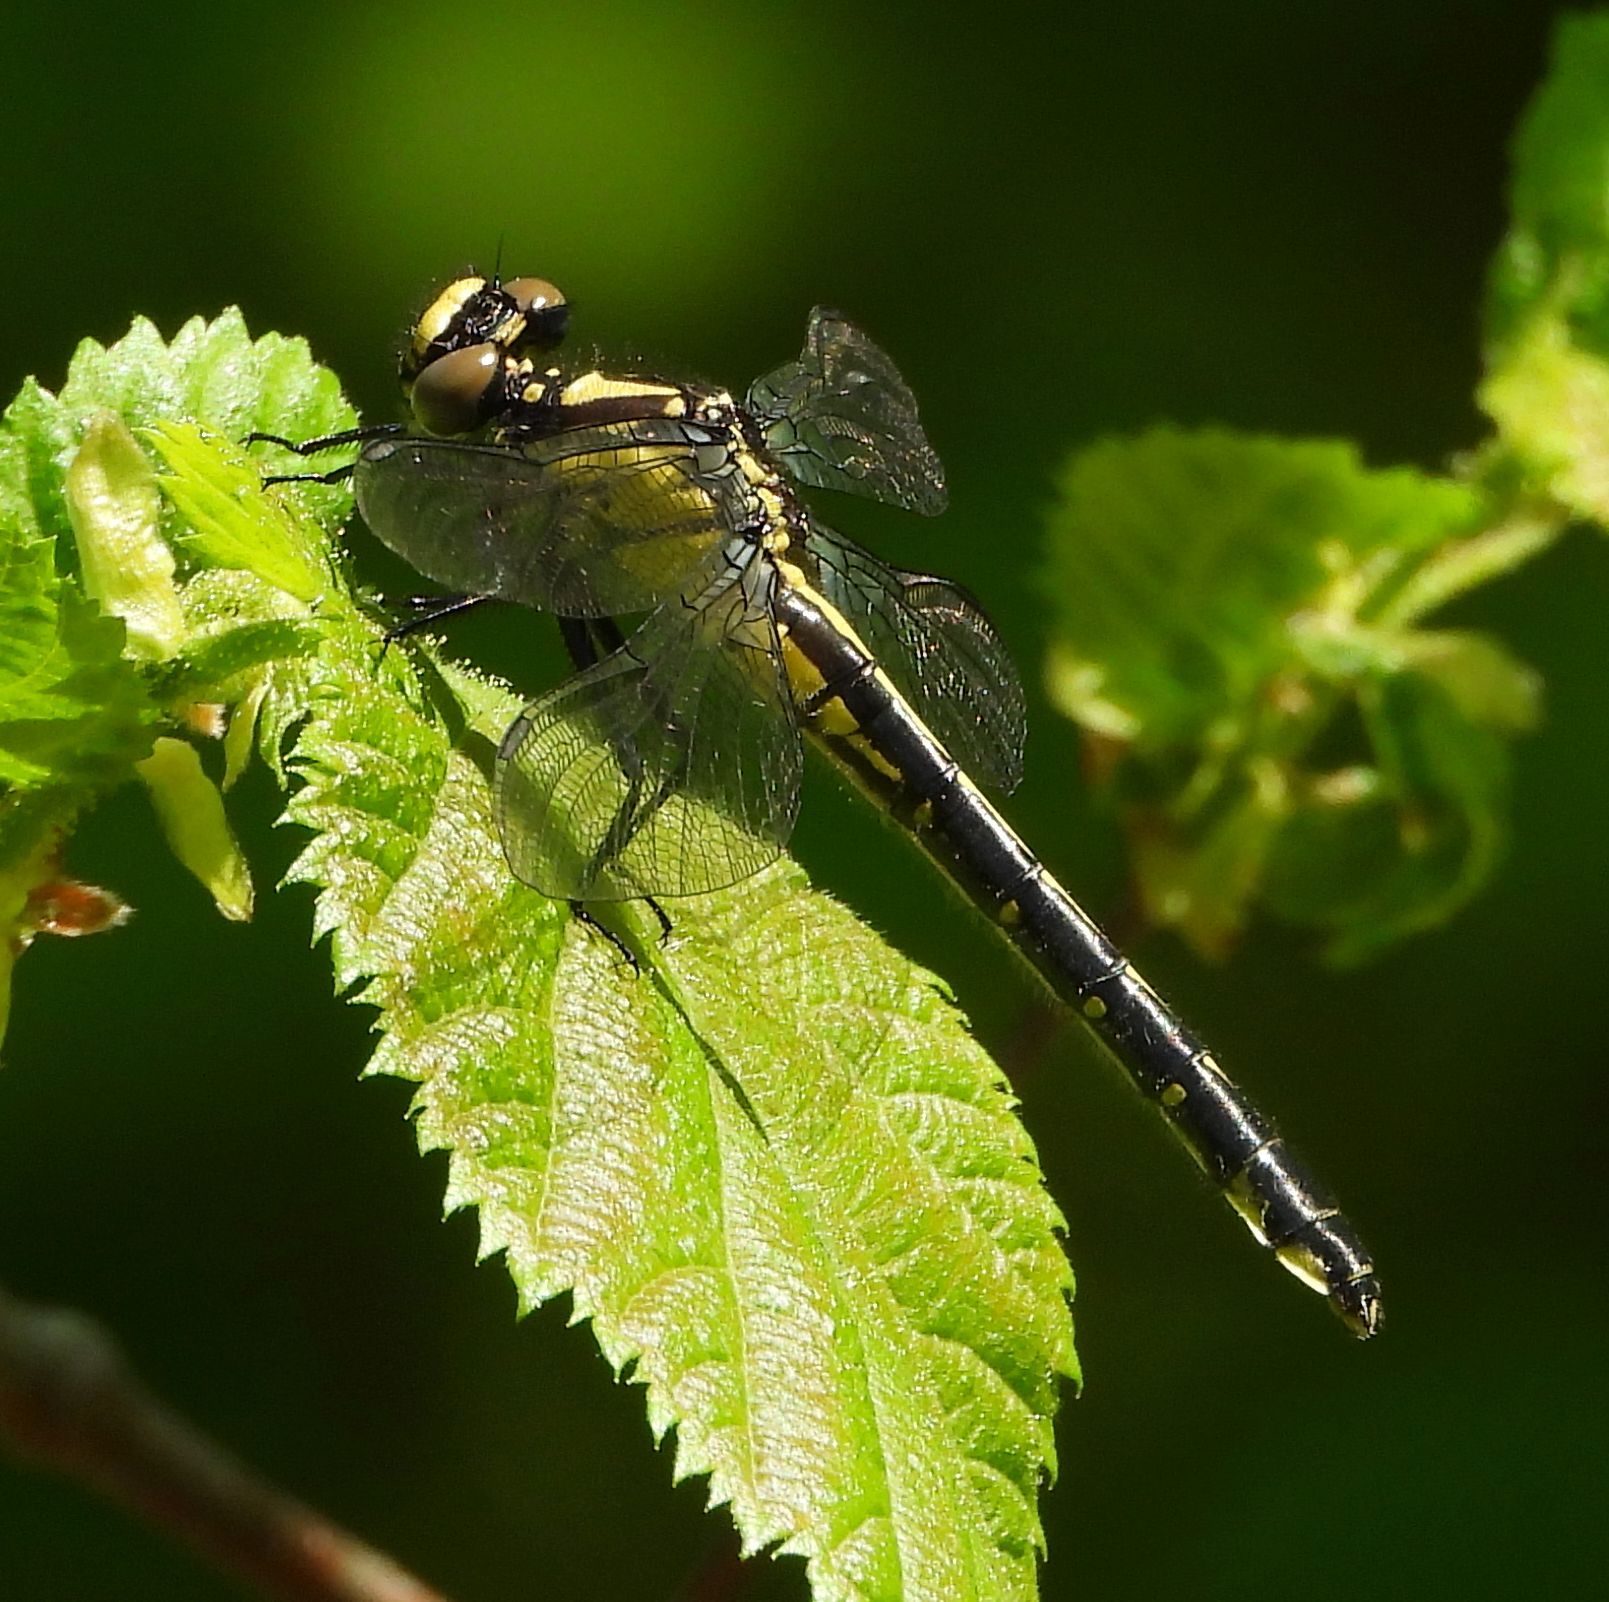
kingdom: Animalia
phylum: Arthropoda
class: Insecta
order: Odonata
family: Gomphidae
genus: Hylogomphus
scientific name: Hylogomphus adelphus
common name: Mustached clubtail
